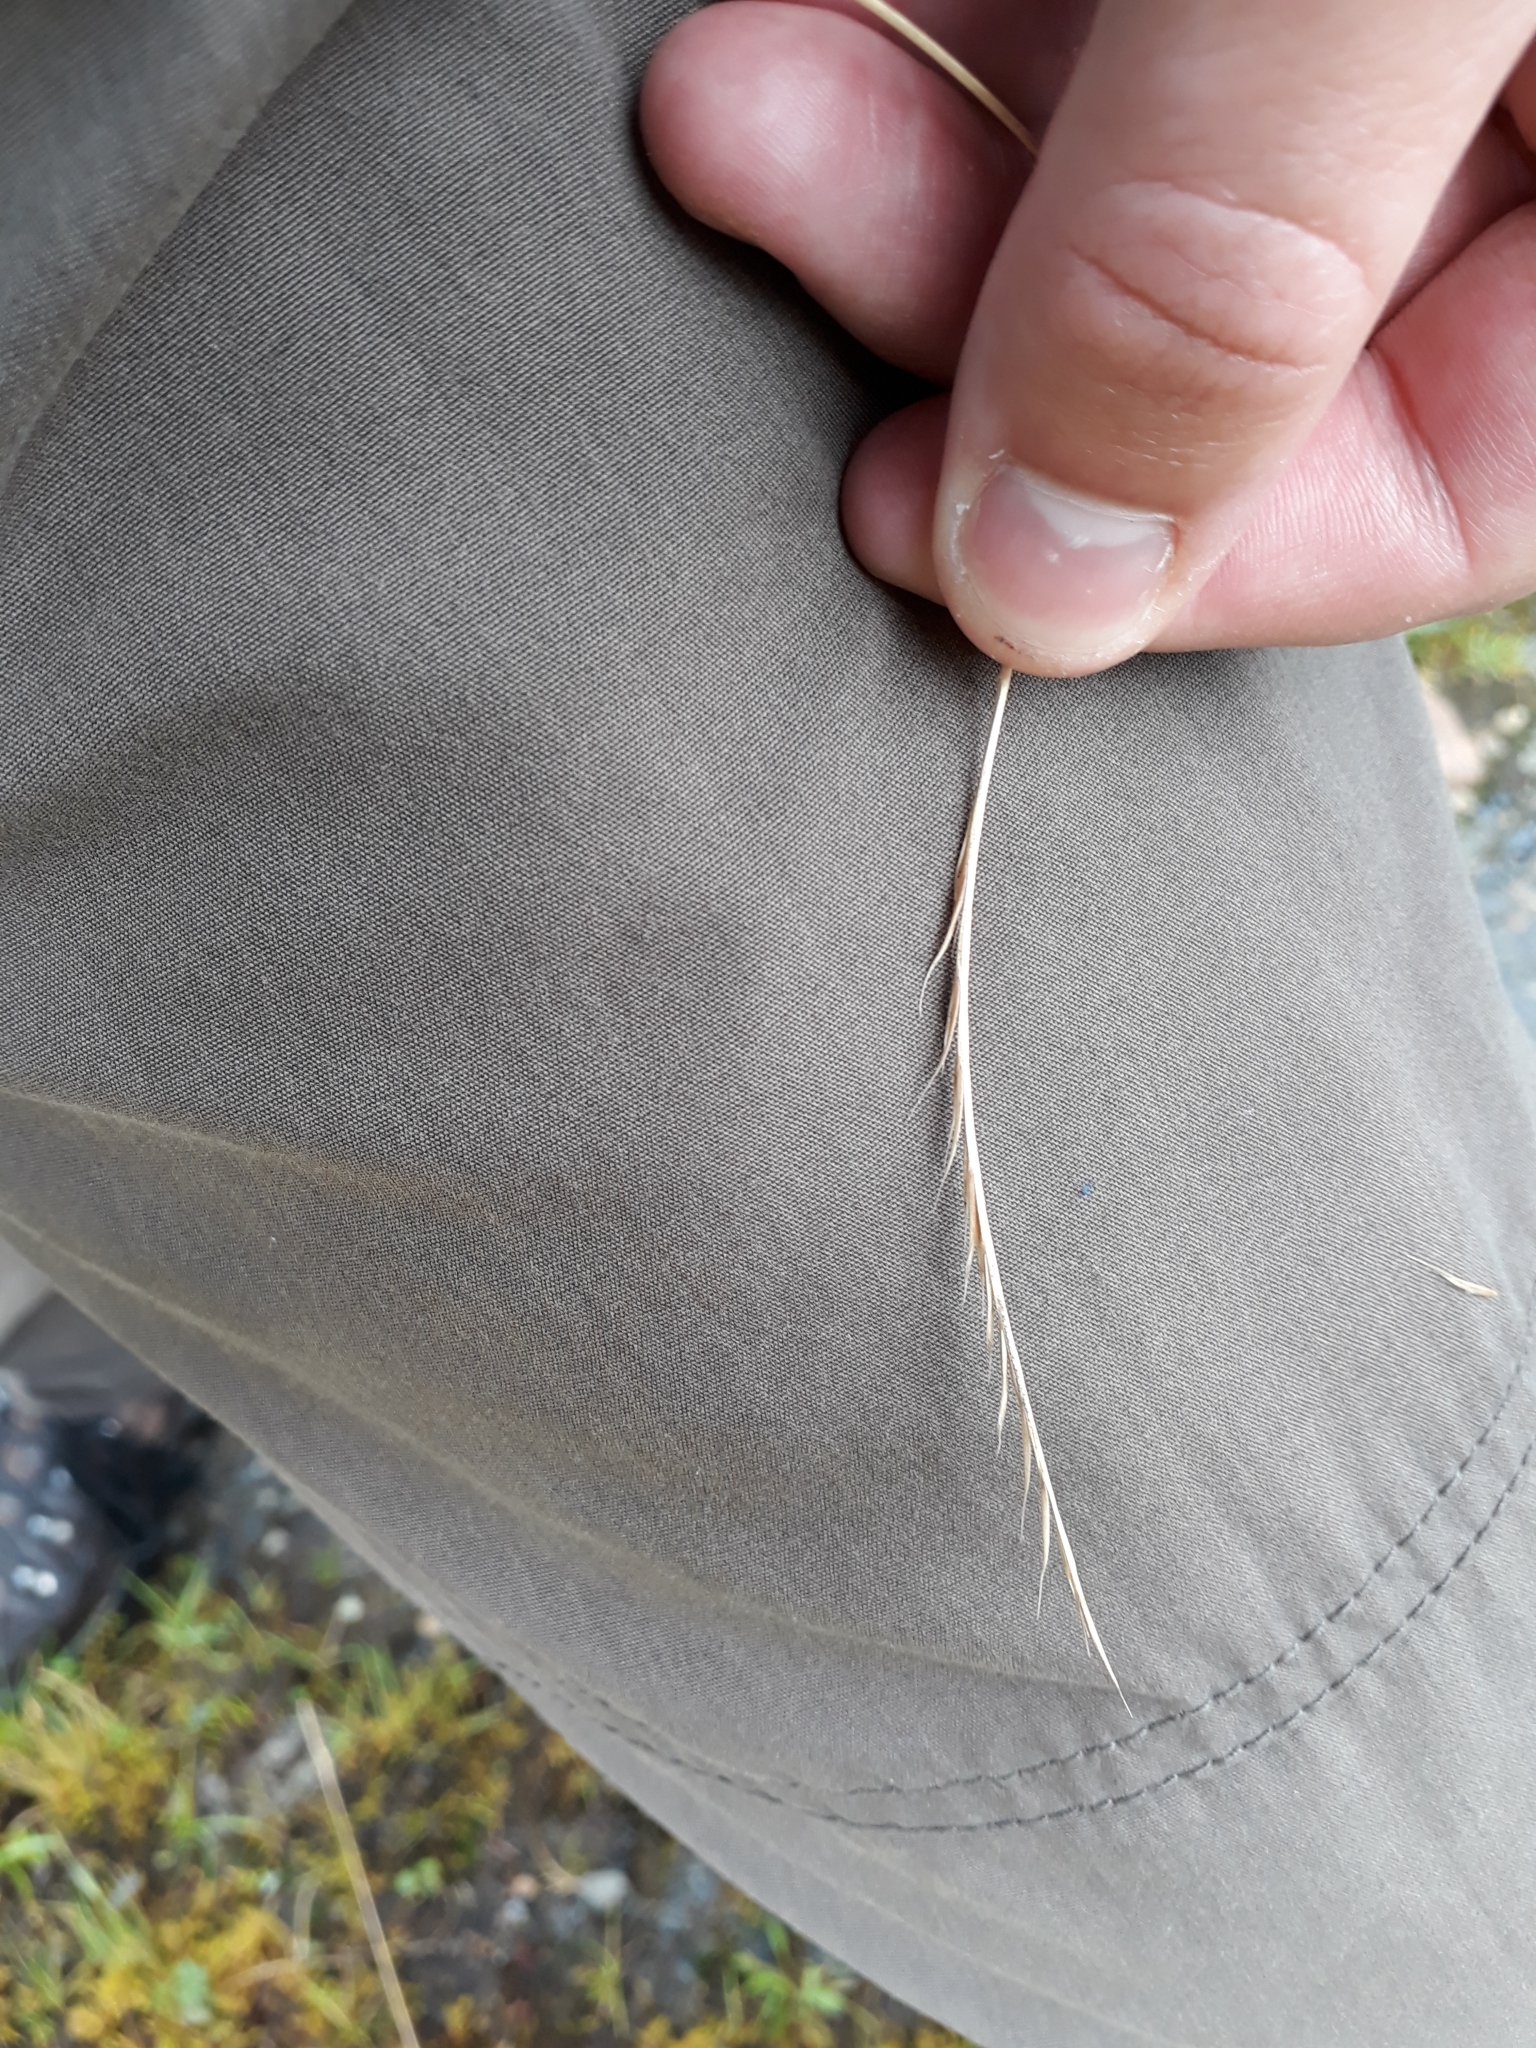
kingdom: Plantae
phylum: Tracheophyta
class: Liliopsida
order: Poales
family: Poaceae
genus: Nardus
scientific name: Nardus stricta
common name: Mat-grass
